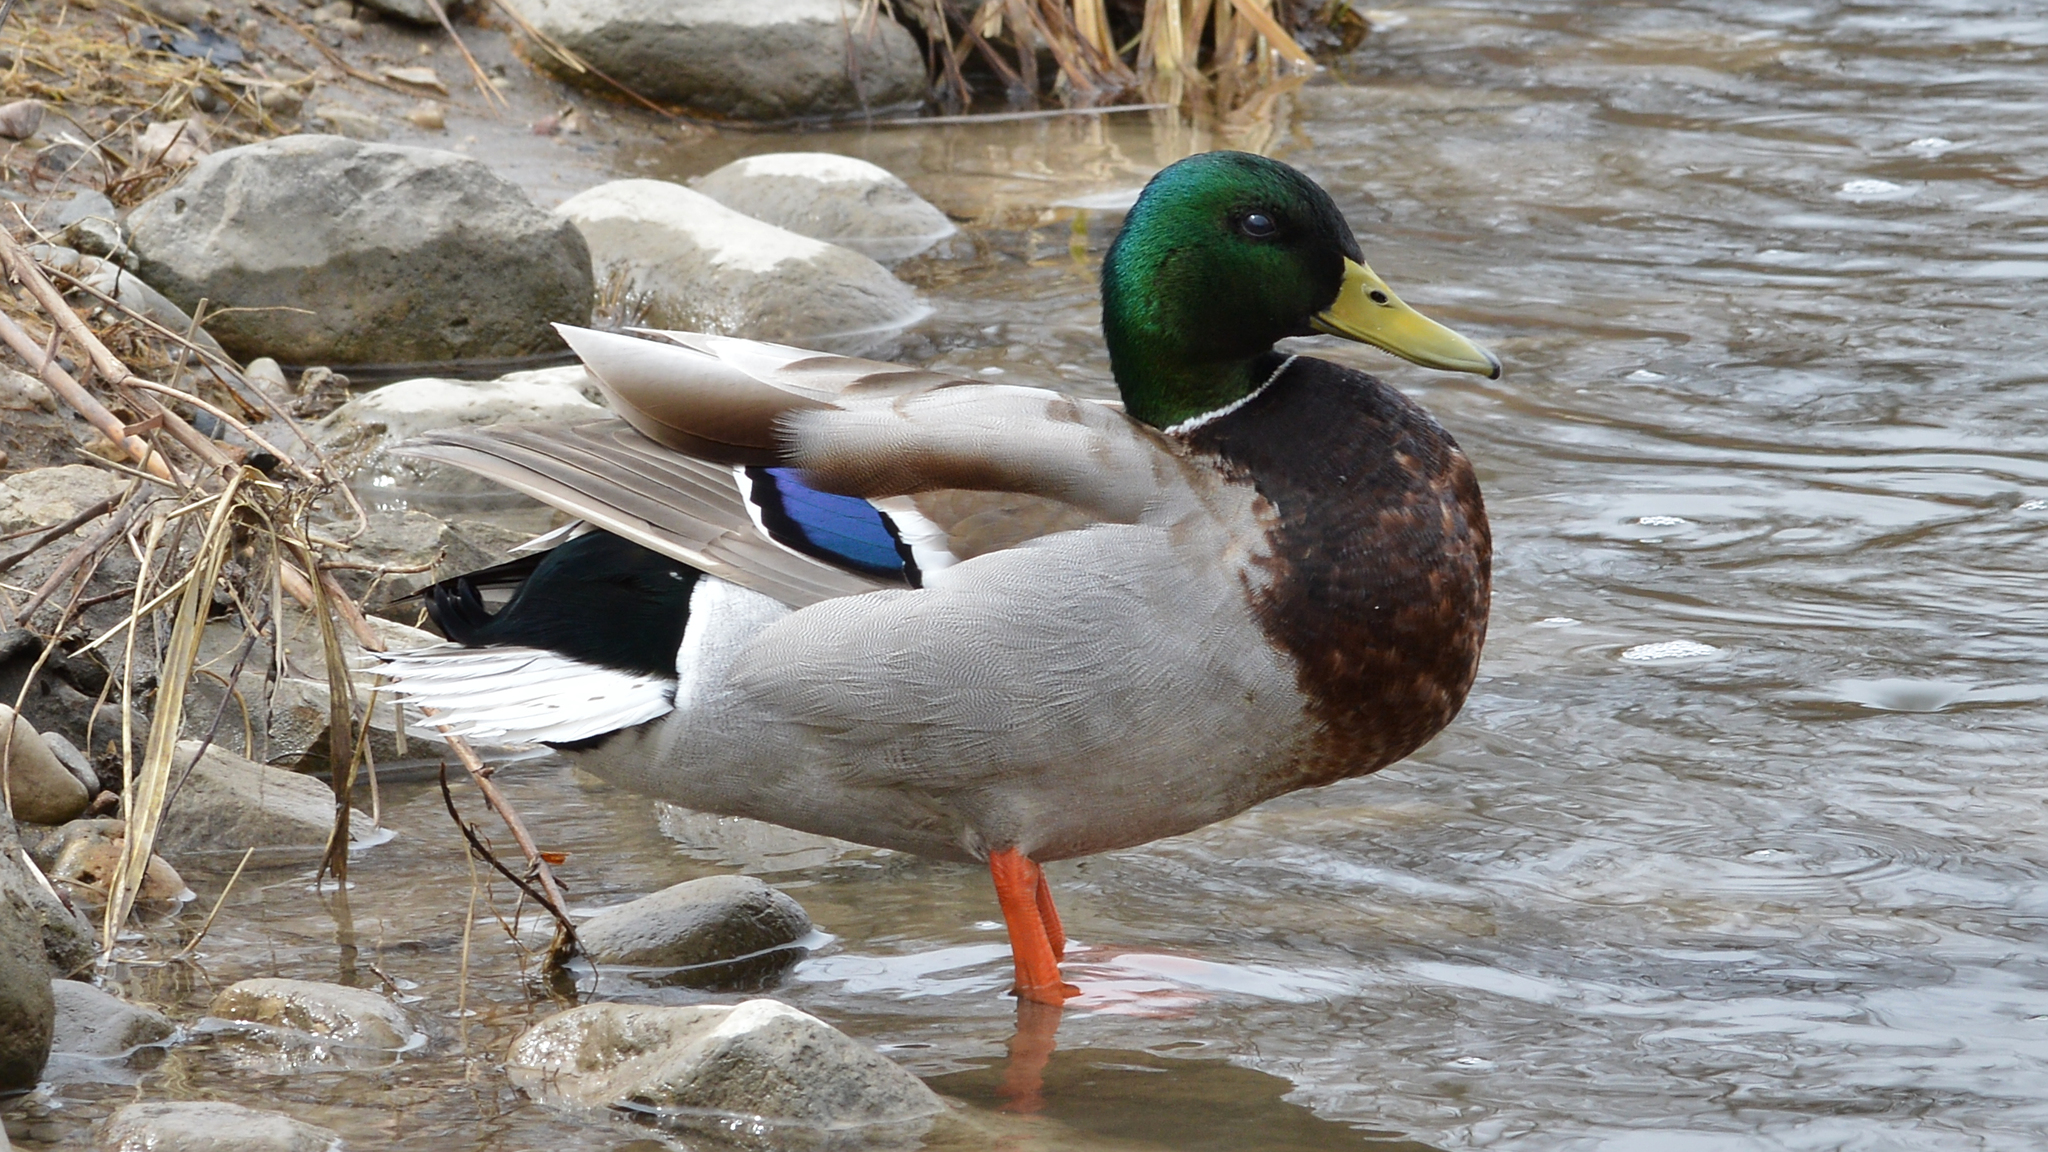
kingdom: Animalia
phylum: Chordata
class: Aves
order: Anseriformes
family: Anatidae
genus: Anas
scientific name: Anas platyrhynchos
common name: Mallard
